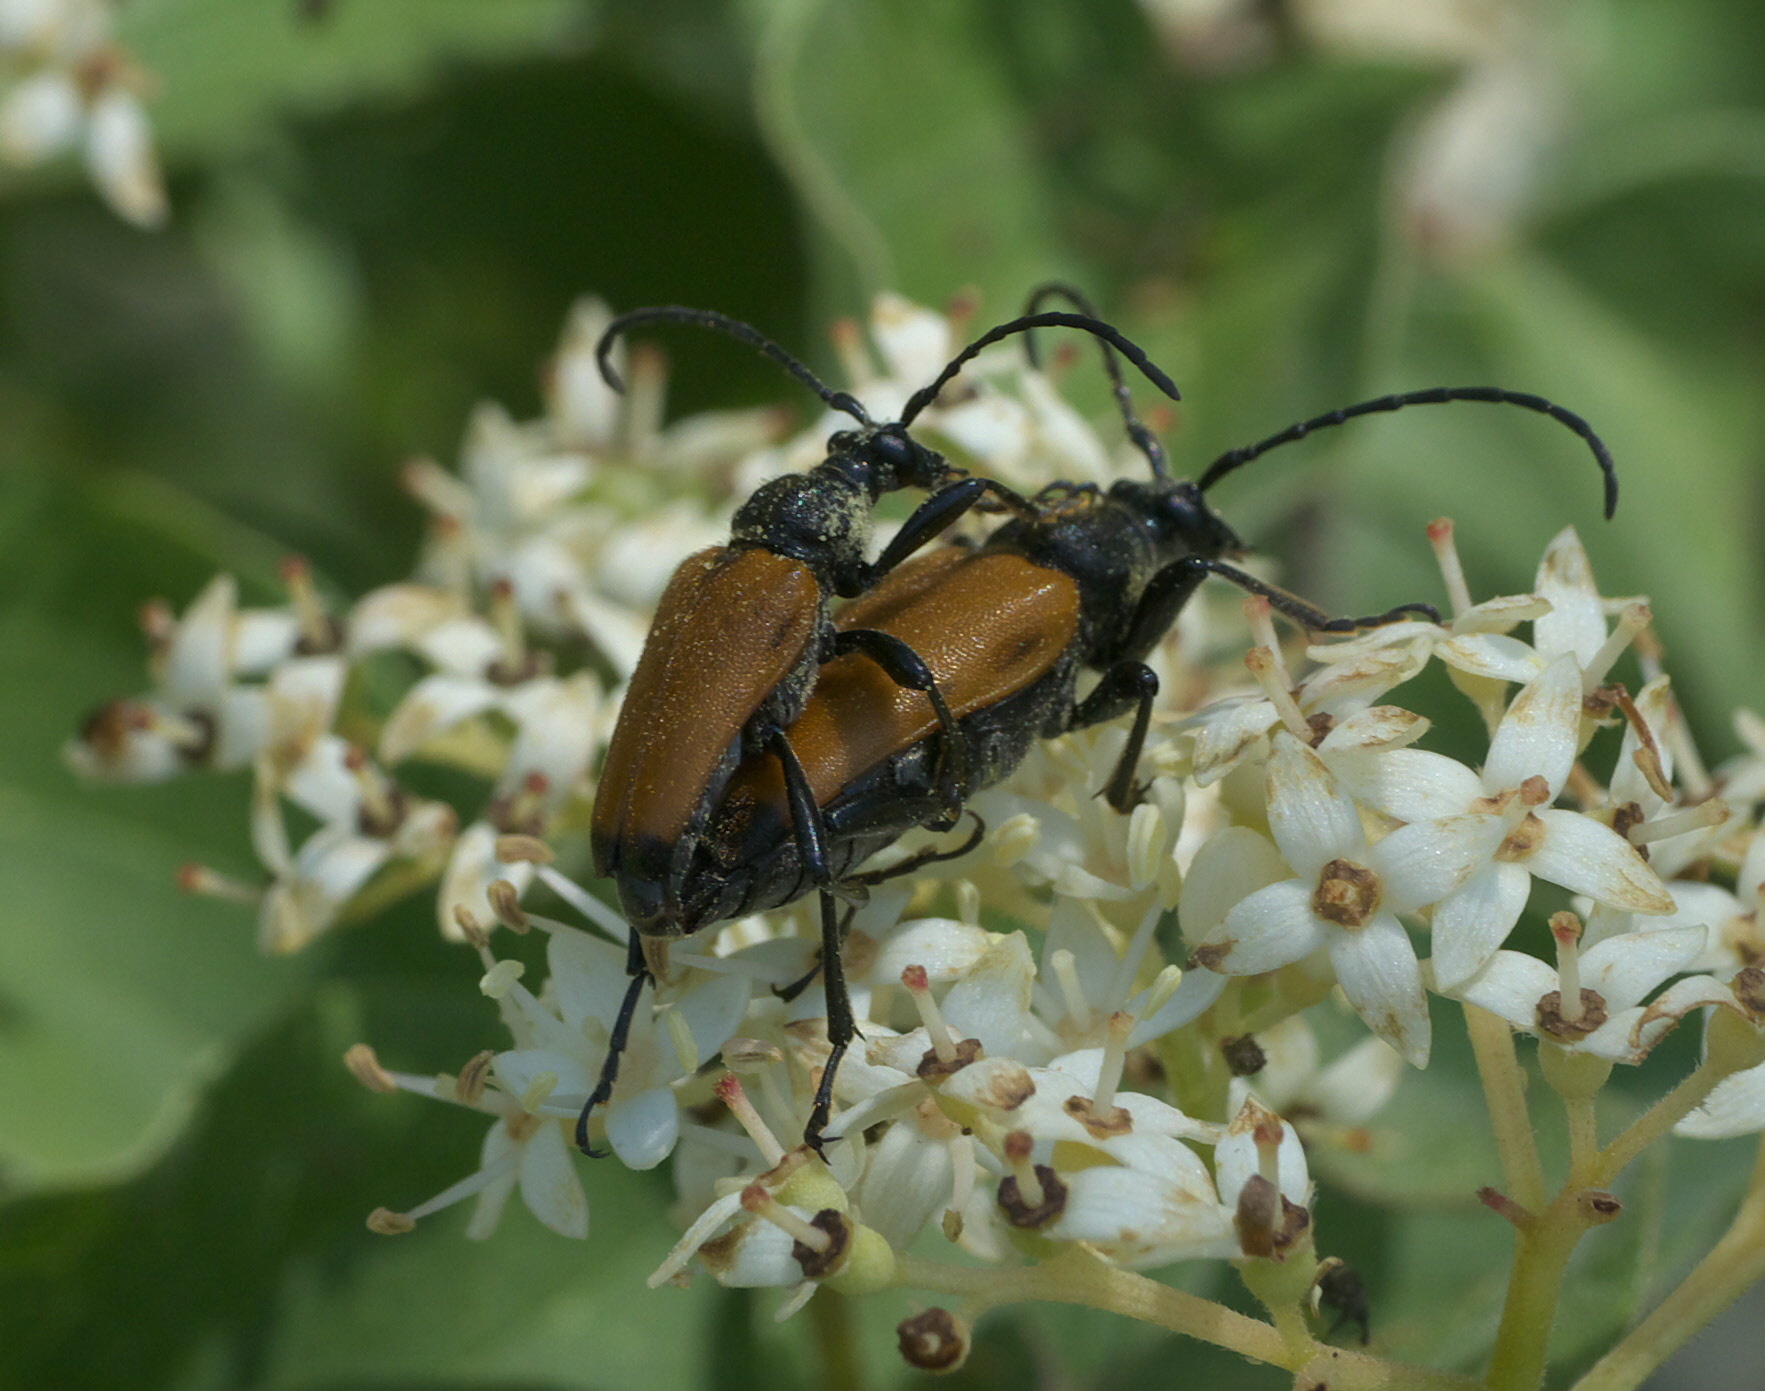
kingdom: Animalia
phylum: Arthropoda
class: Insecta
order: Coleoptera
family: Cerambycidae
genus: Trigonarthris
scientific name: Trigonarthris atrata
